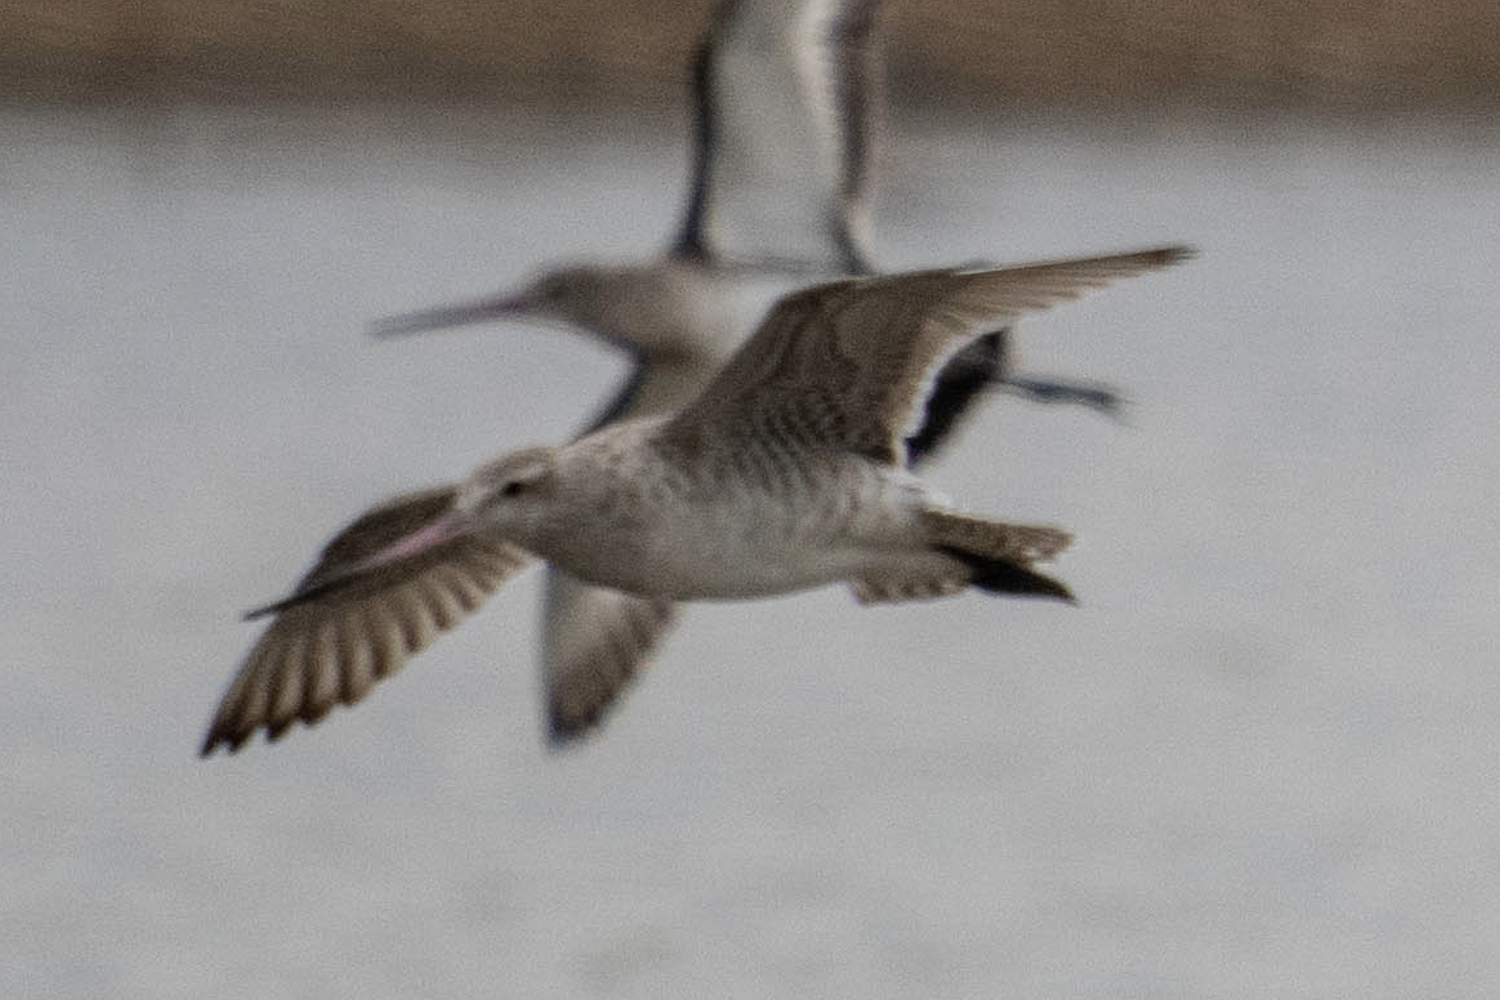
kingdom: Animalia
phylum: Chordata
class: Aves
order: Charadriiformes
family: Scolopacidae
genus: Limosa
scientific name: Limosa lapponica
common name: Bar-tailed godwit
